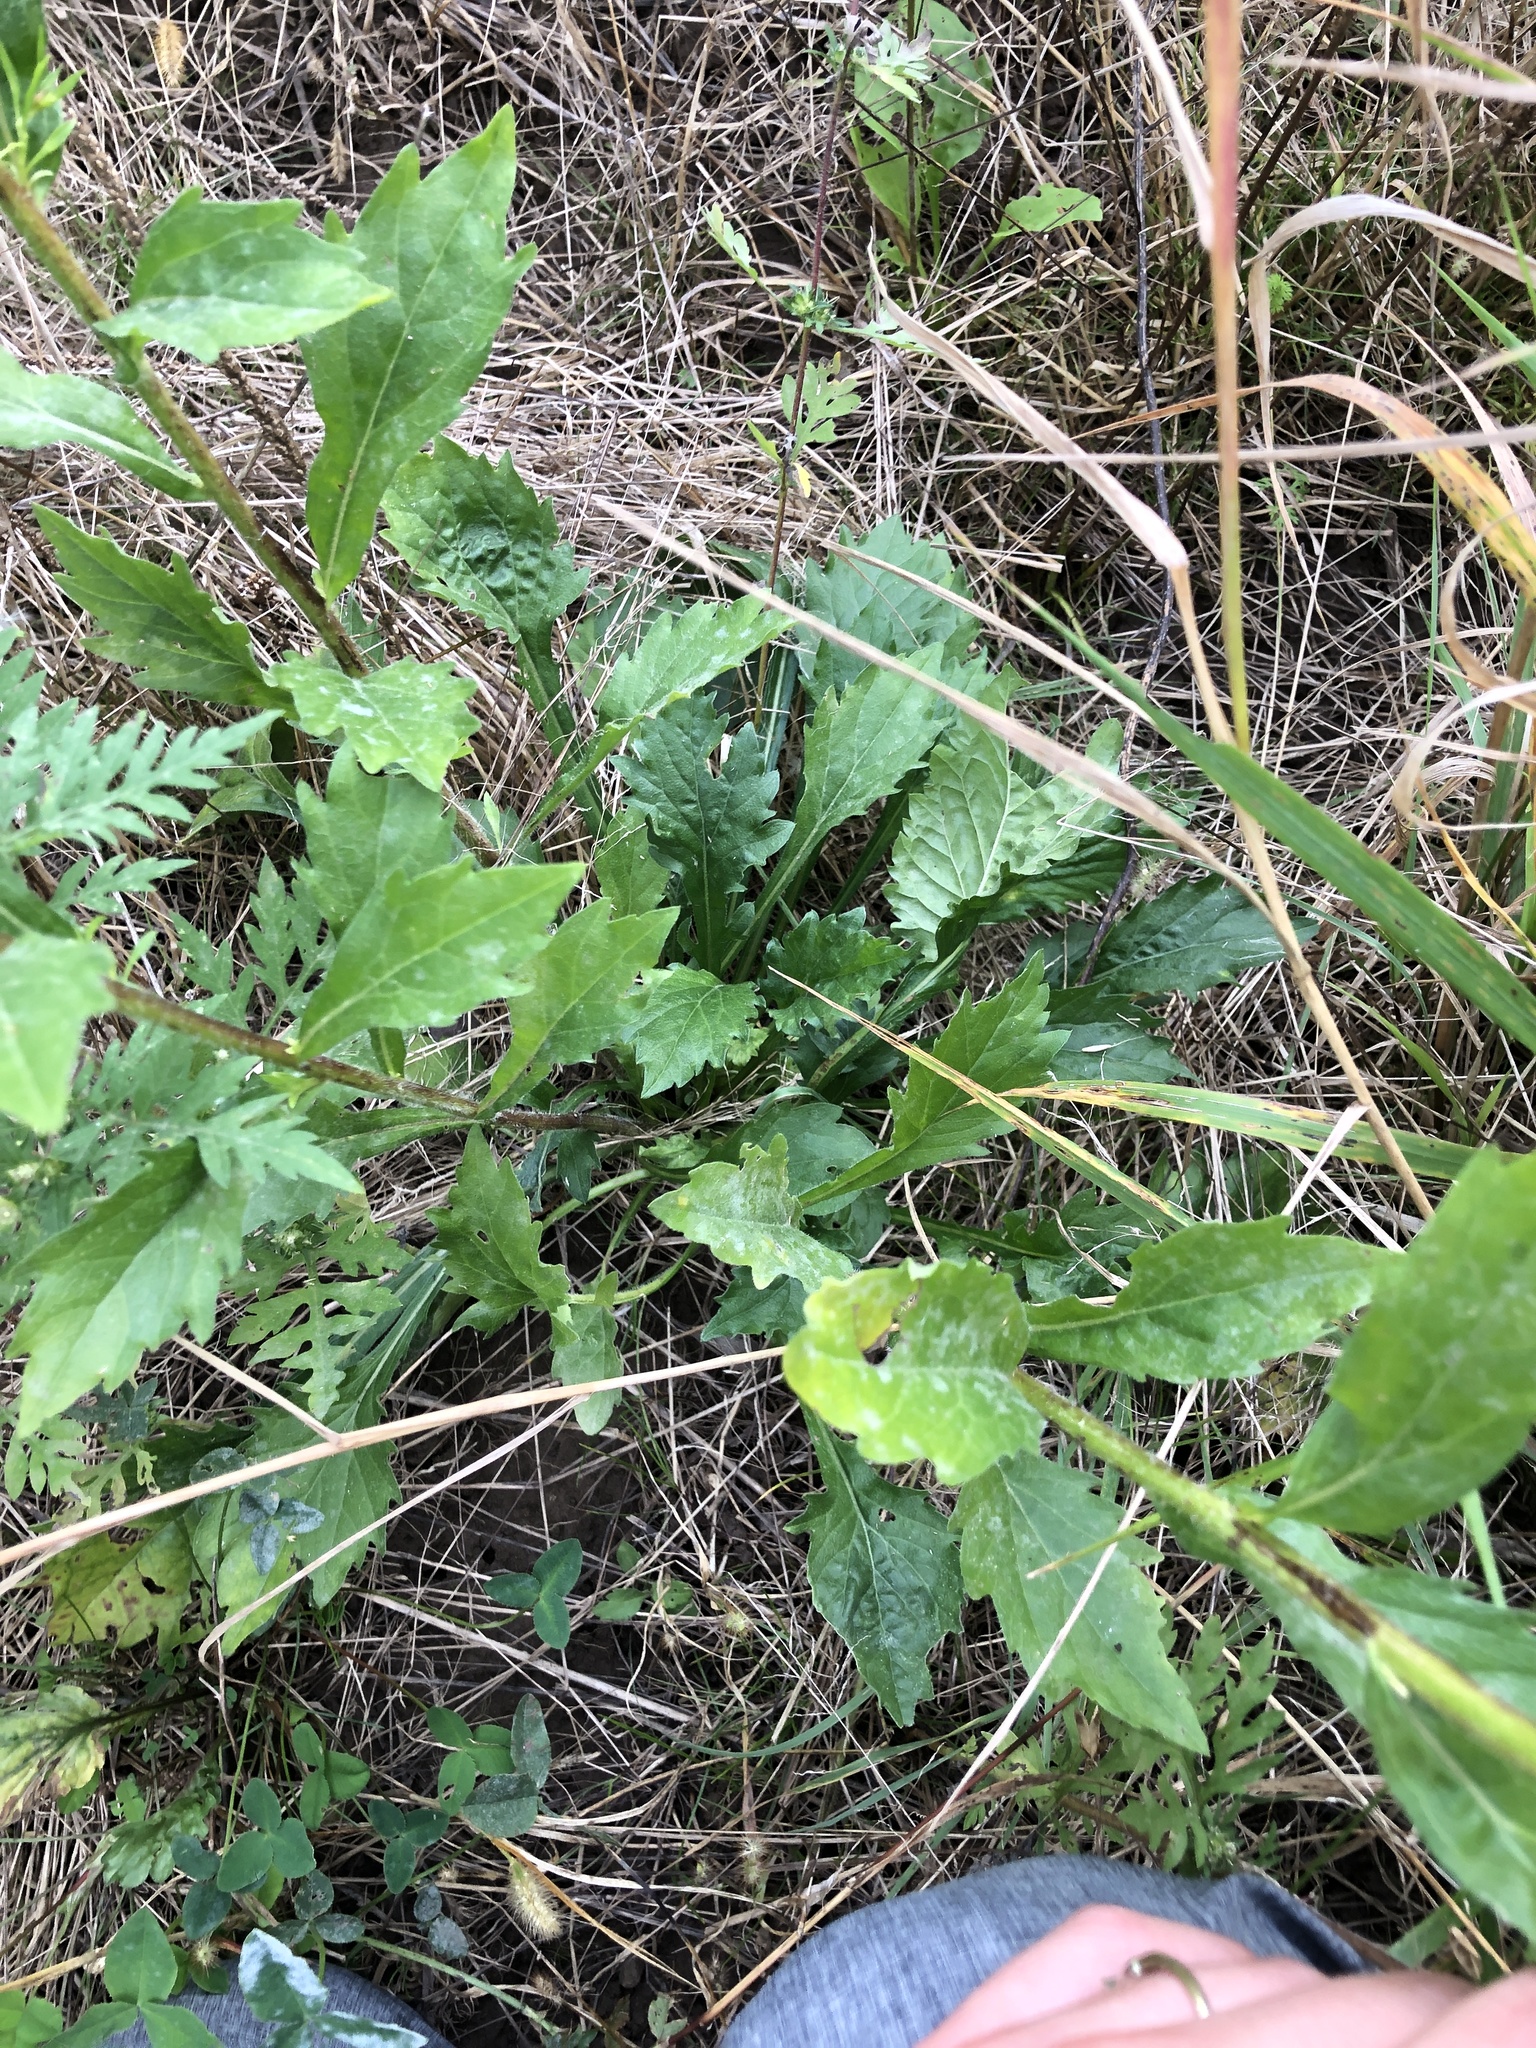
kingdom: Plantae
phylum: Tracheophyta
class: Magnoliopsida
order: Asterales
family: Asteraceae
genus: Erigeron
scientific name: Erigeron annuus
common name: Tall fleabane
